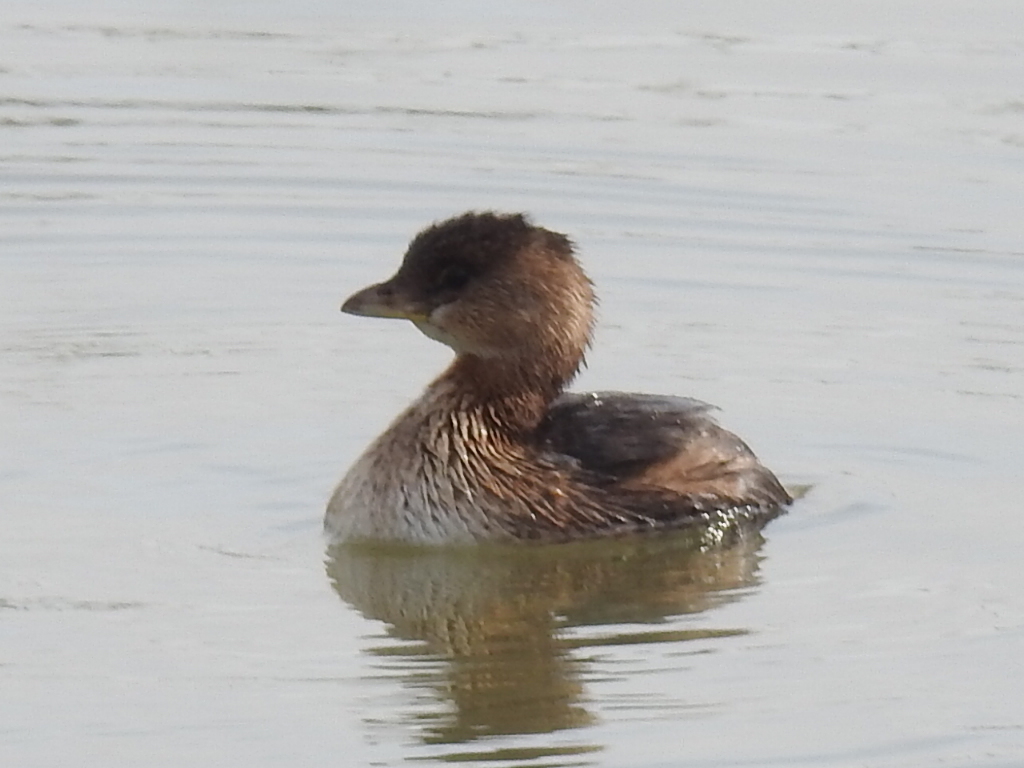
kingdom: Animalia
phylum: Chordata
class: Aves
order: Podicipediformes
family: Podicipedidae
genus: Podilymbus
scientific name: Podilymbus podiceps
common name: Pied-billed grebe
